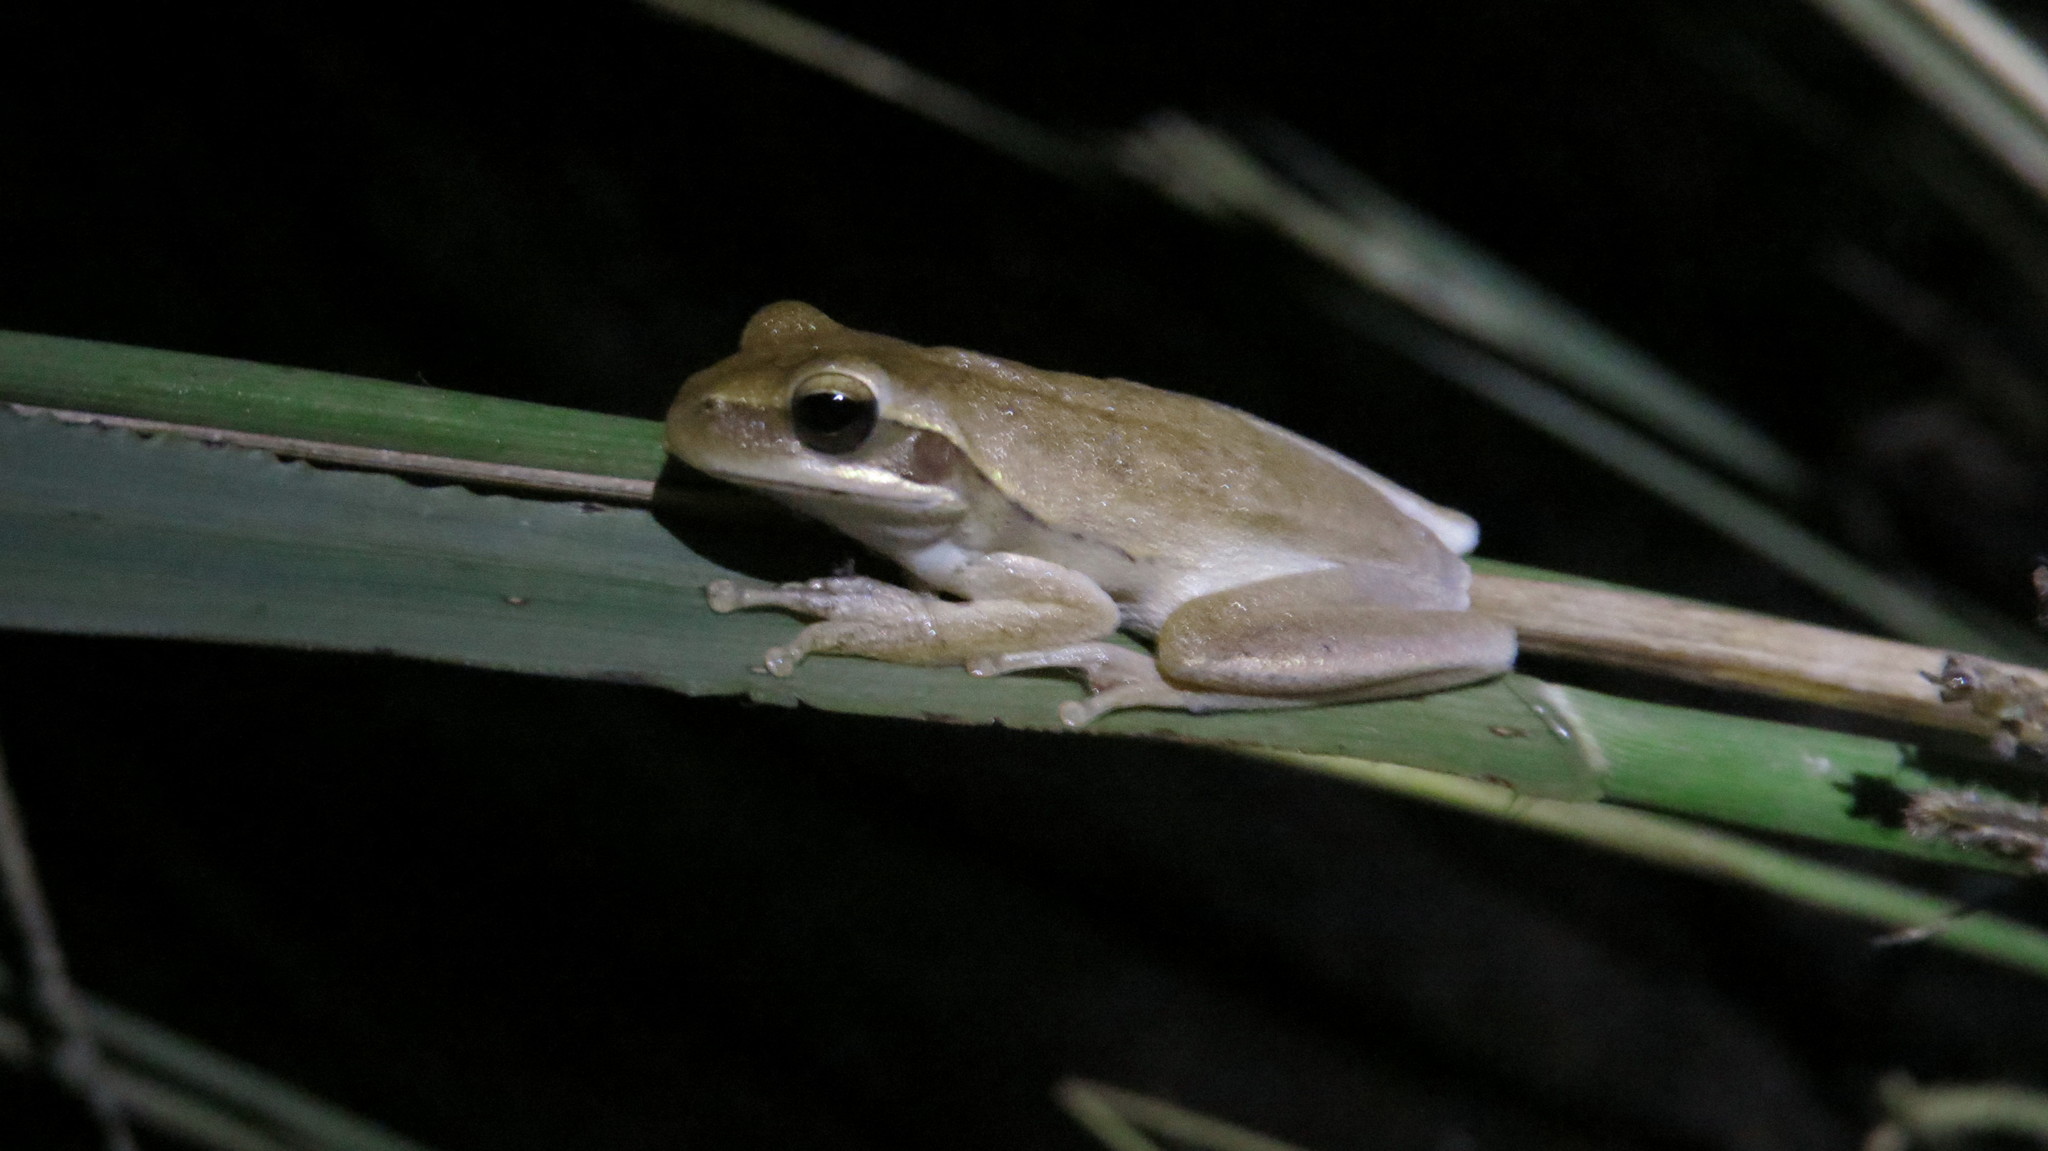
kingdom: Animalia
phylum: Chordata
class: Amphibia
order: Anura
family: Hylidae
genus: Boana
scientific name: Boana pulchella
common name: Montevideo treefrog
